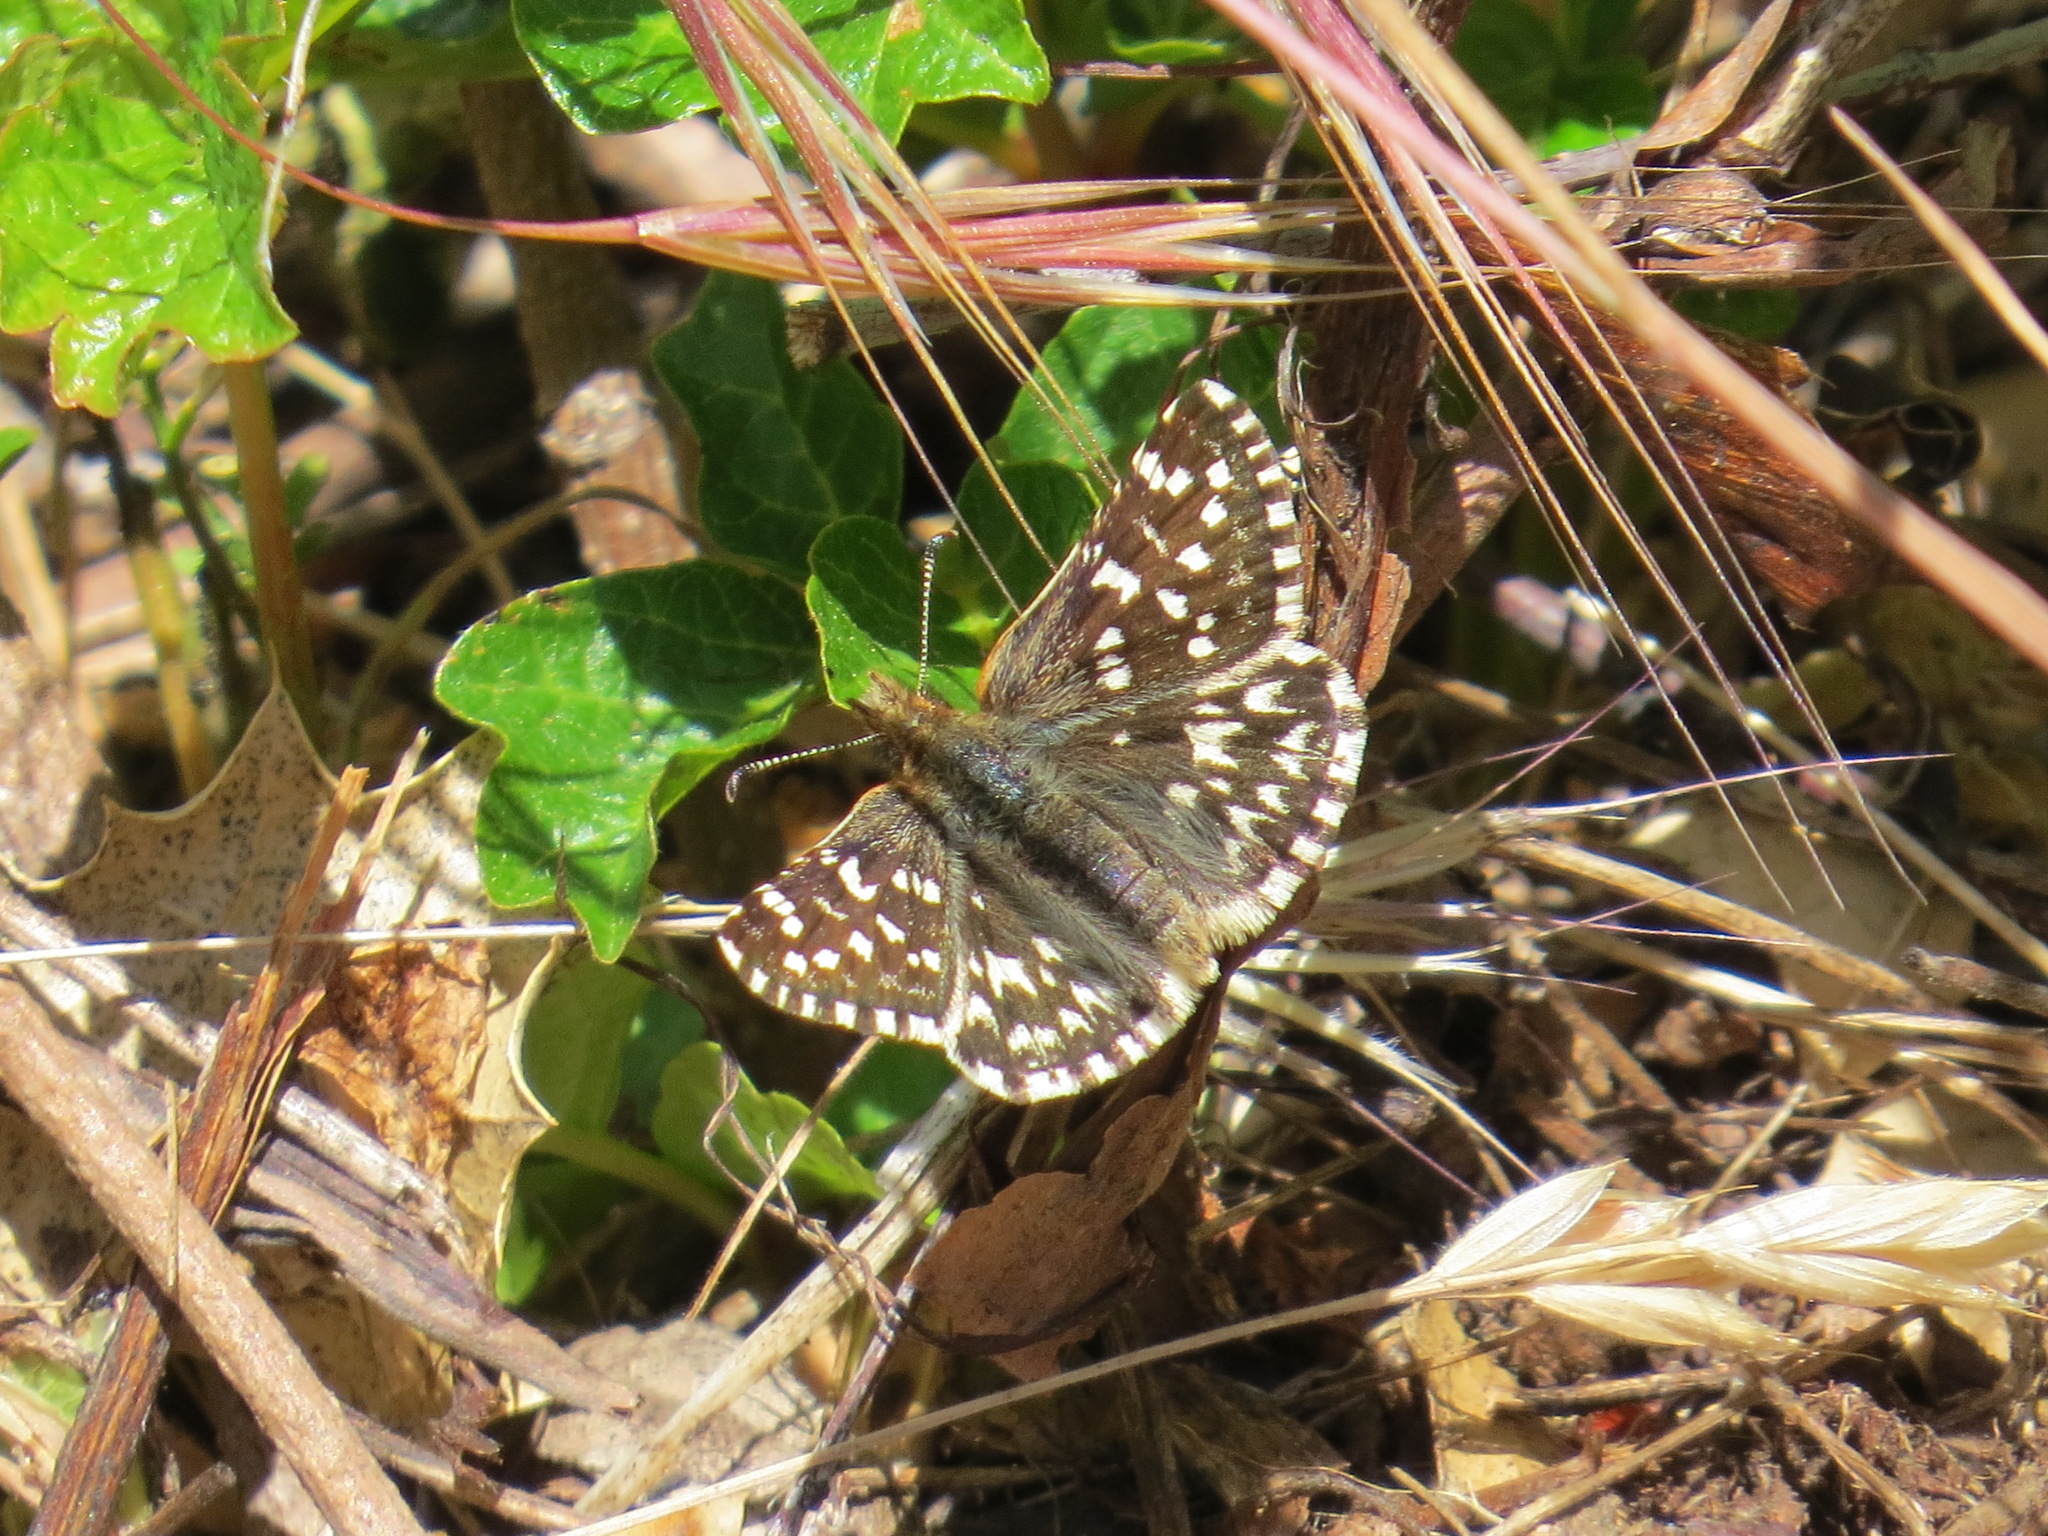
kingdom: Animalia
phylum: Arthropoda
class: Insecta
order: Lepidoptera
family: Hesperiidae
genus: Pyrgus
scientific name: Pyrgus ruralis
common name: Two-banded checkered-skipper
